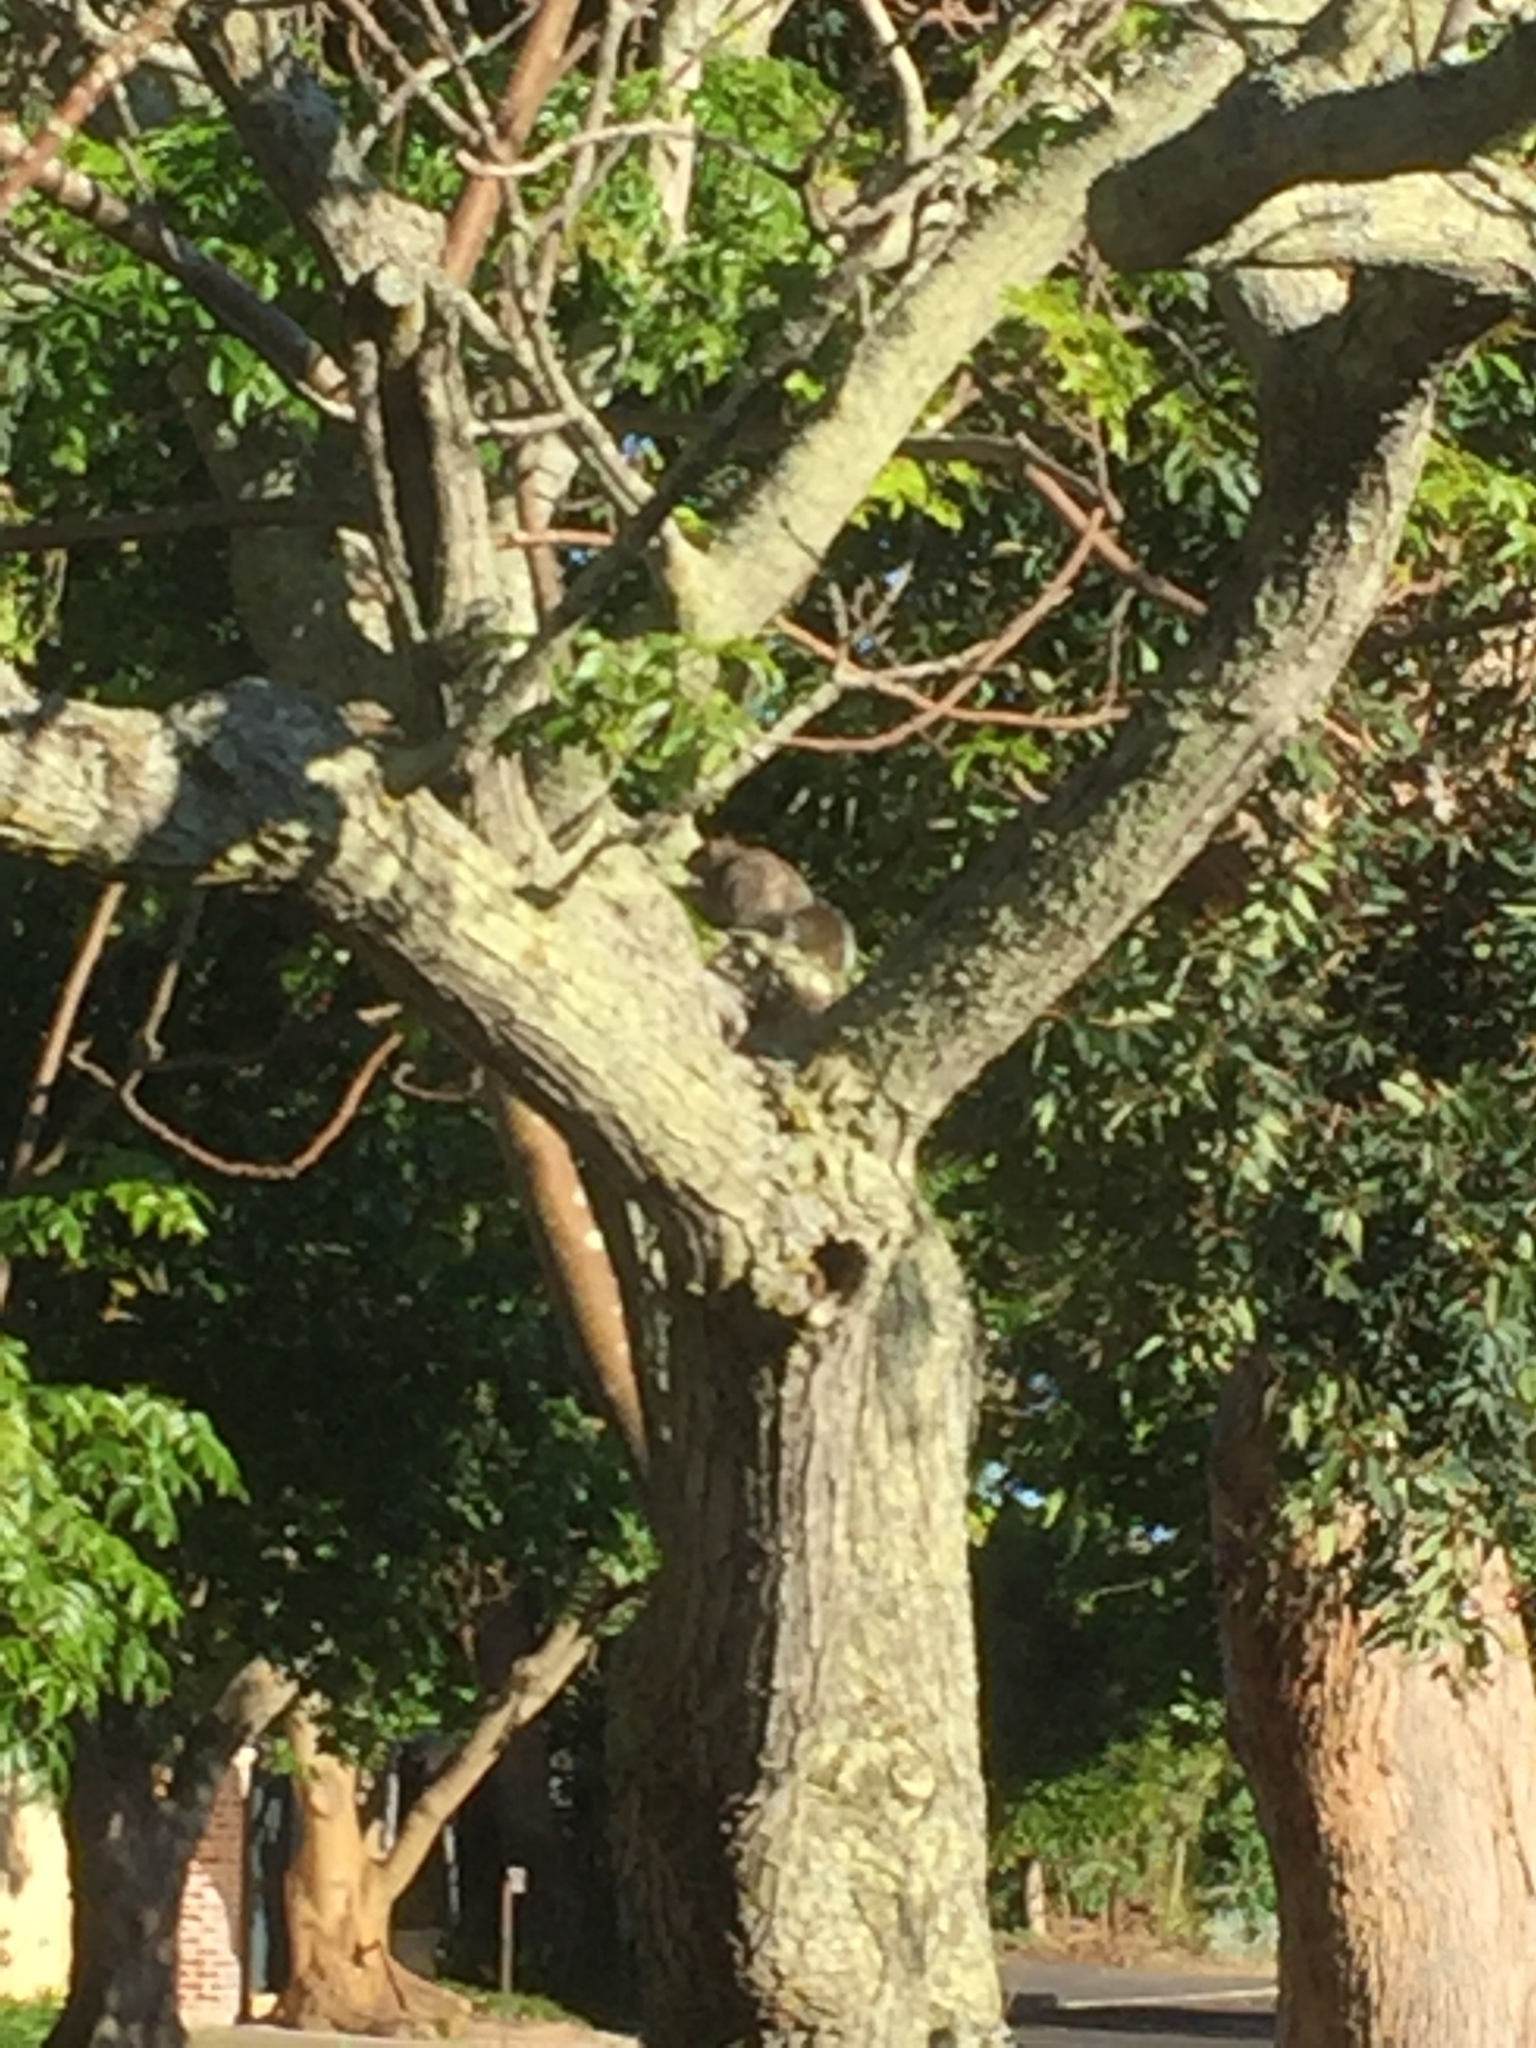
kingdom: Animalia
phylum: Chordata
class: Mammalia
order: Rodentia
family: Sciuridae
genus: Sciurus
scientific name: Sciurus carolinensis
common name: Eastern gray squirrel
